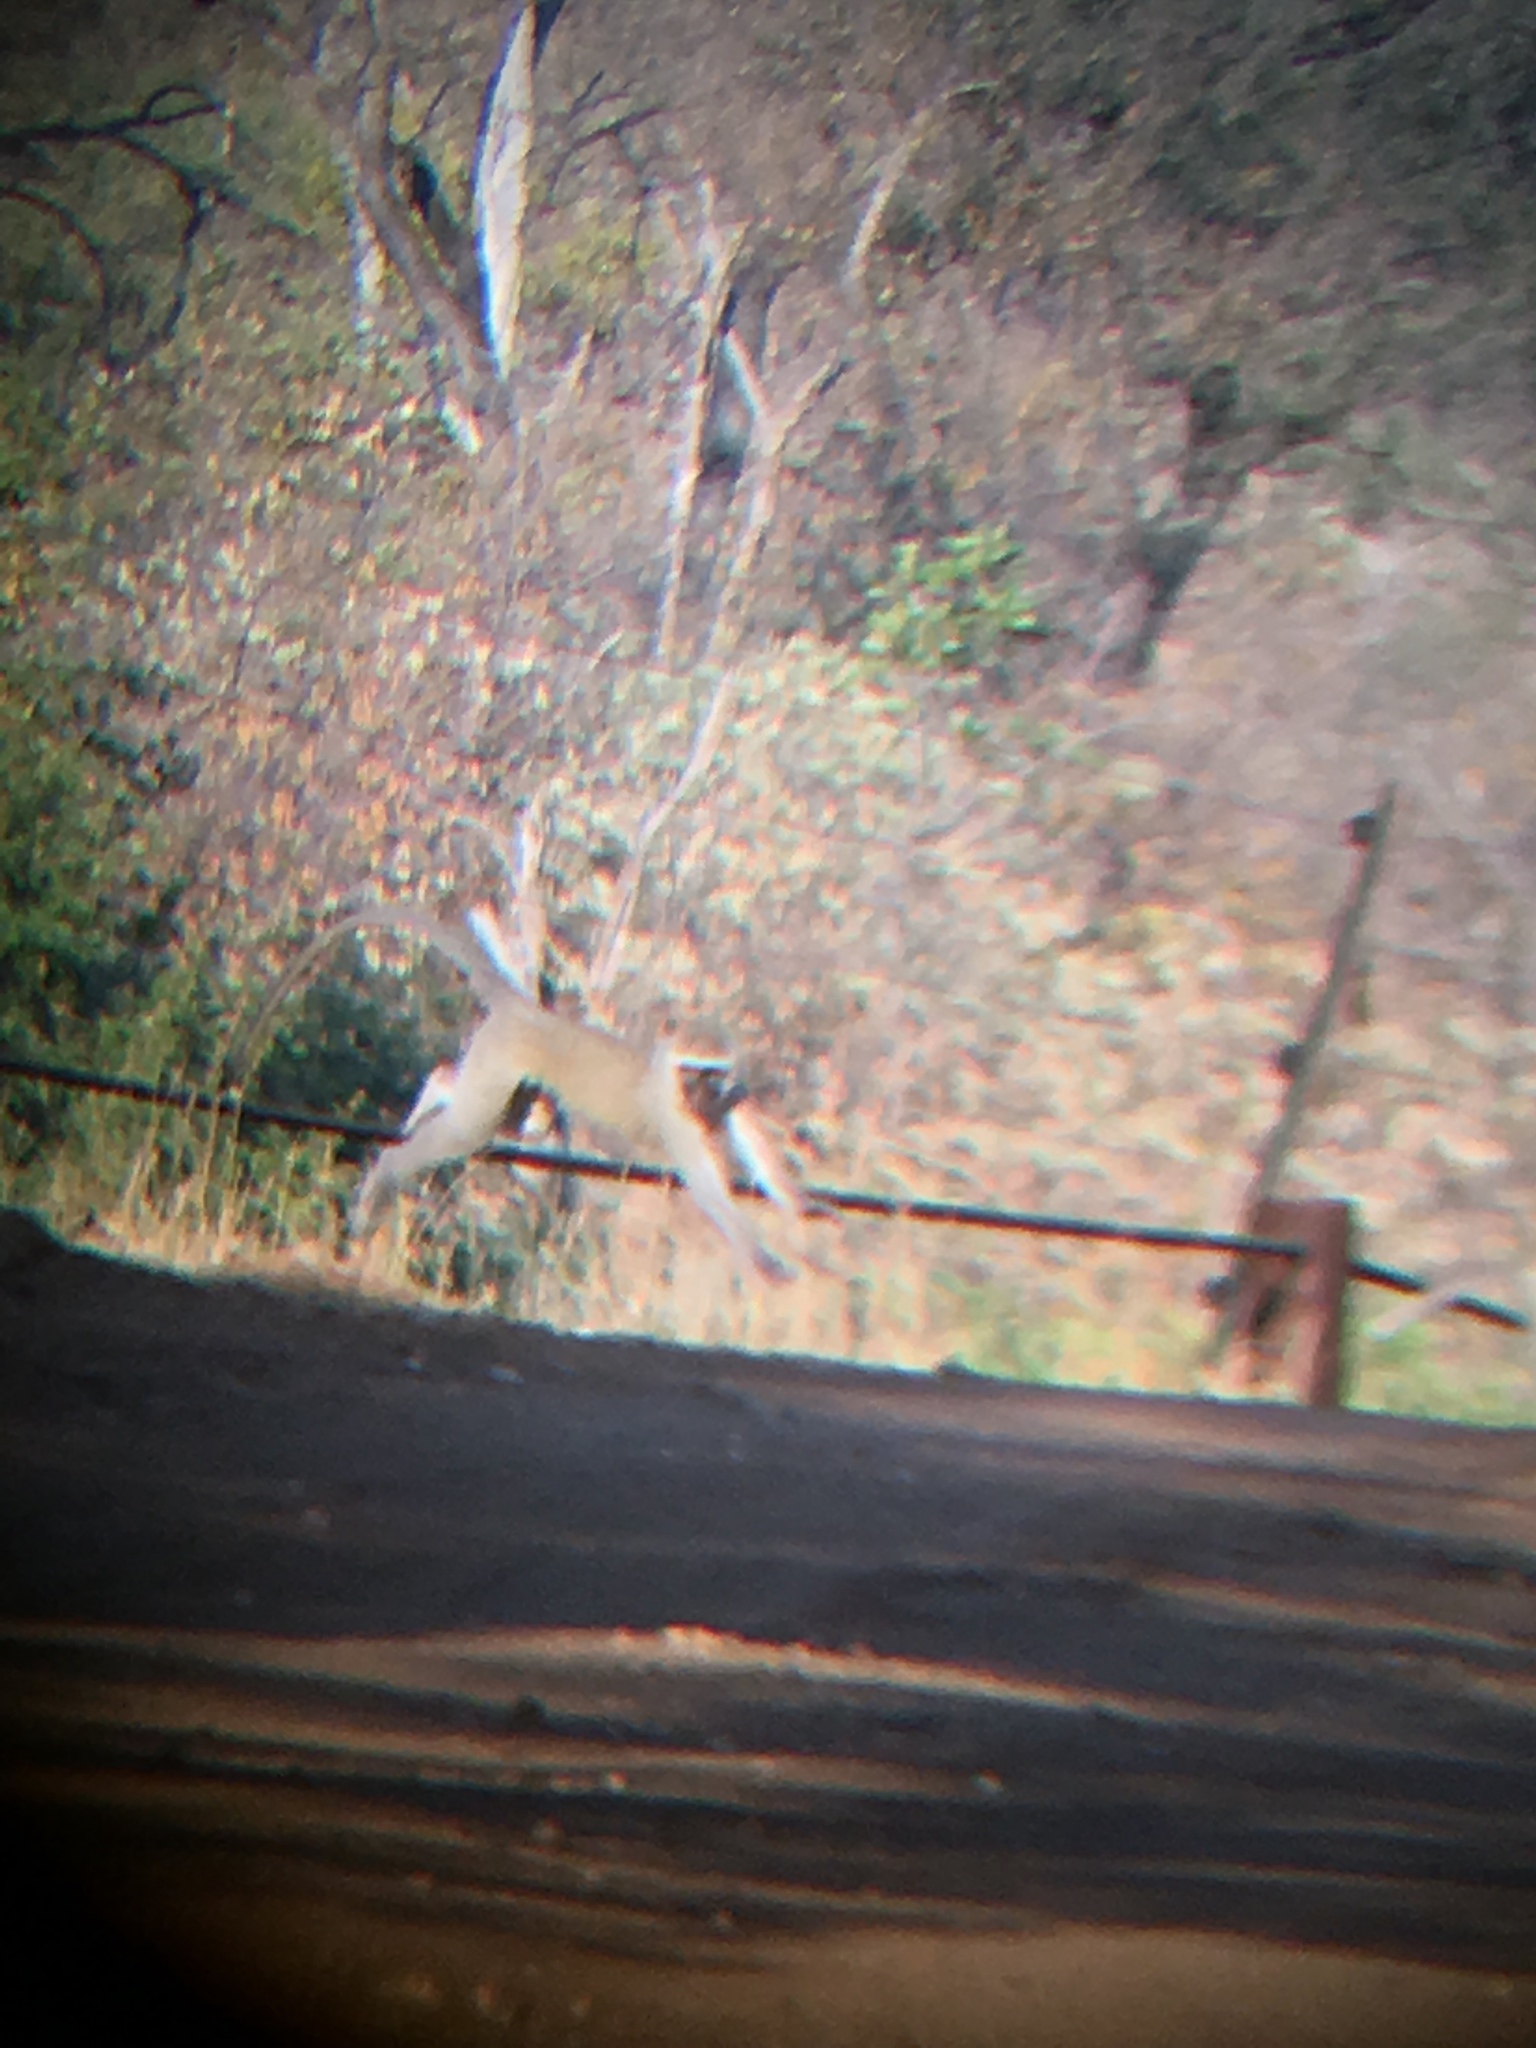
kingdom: Animalia
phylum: Chordata
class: Mammalia
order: Primates
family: Cercopithecidae
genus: Chlorocebus
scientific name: Chlorocebus pygerythrus
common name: Vervet monkey
